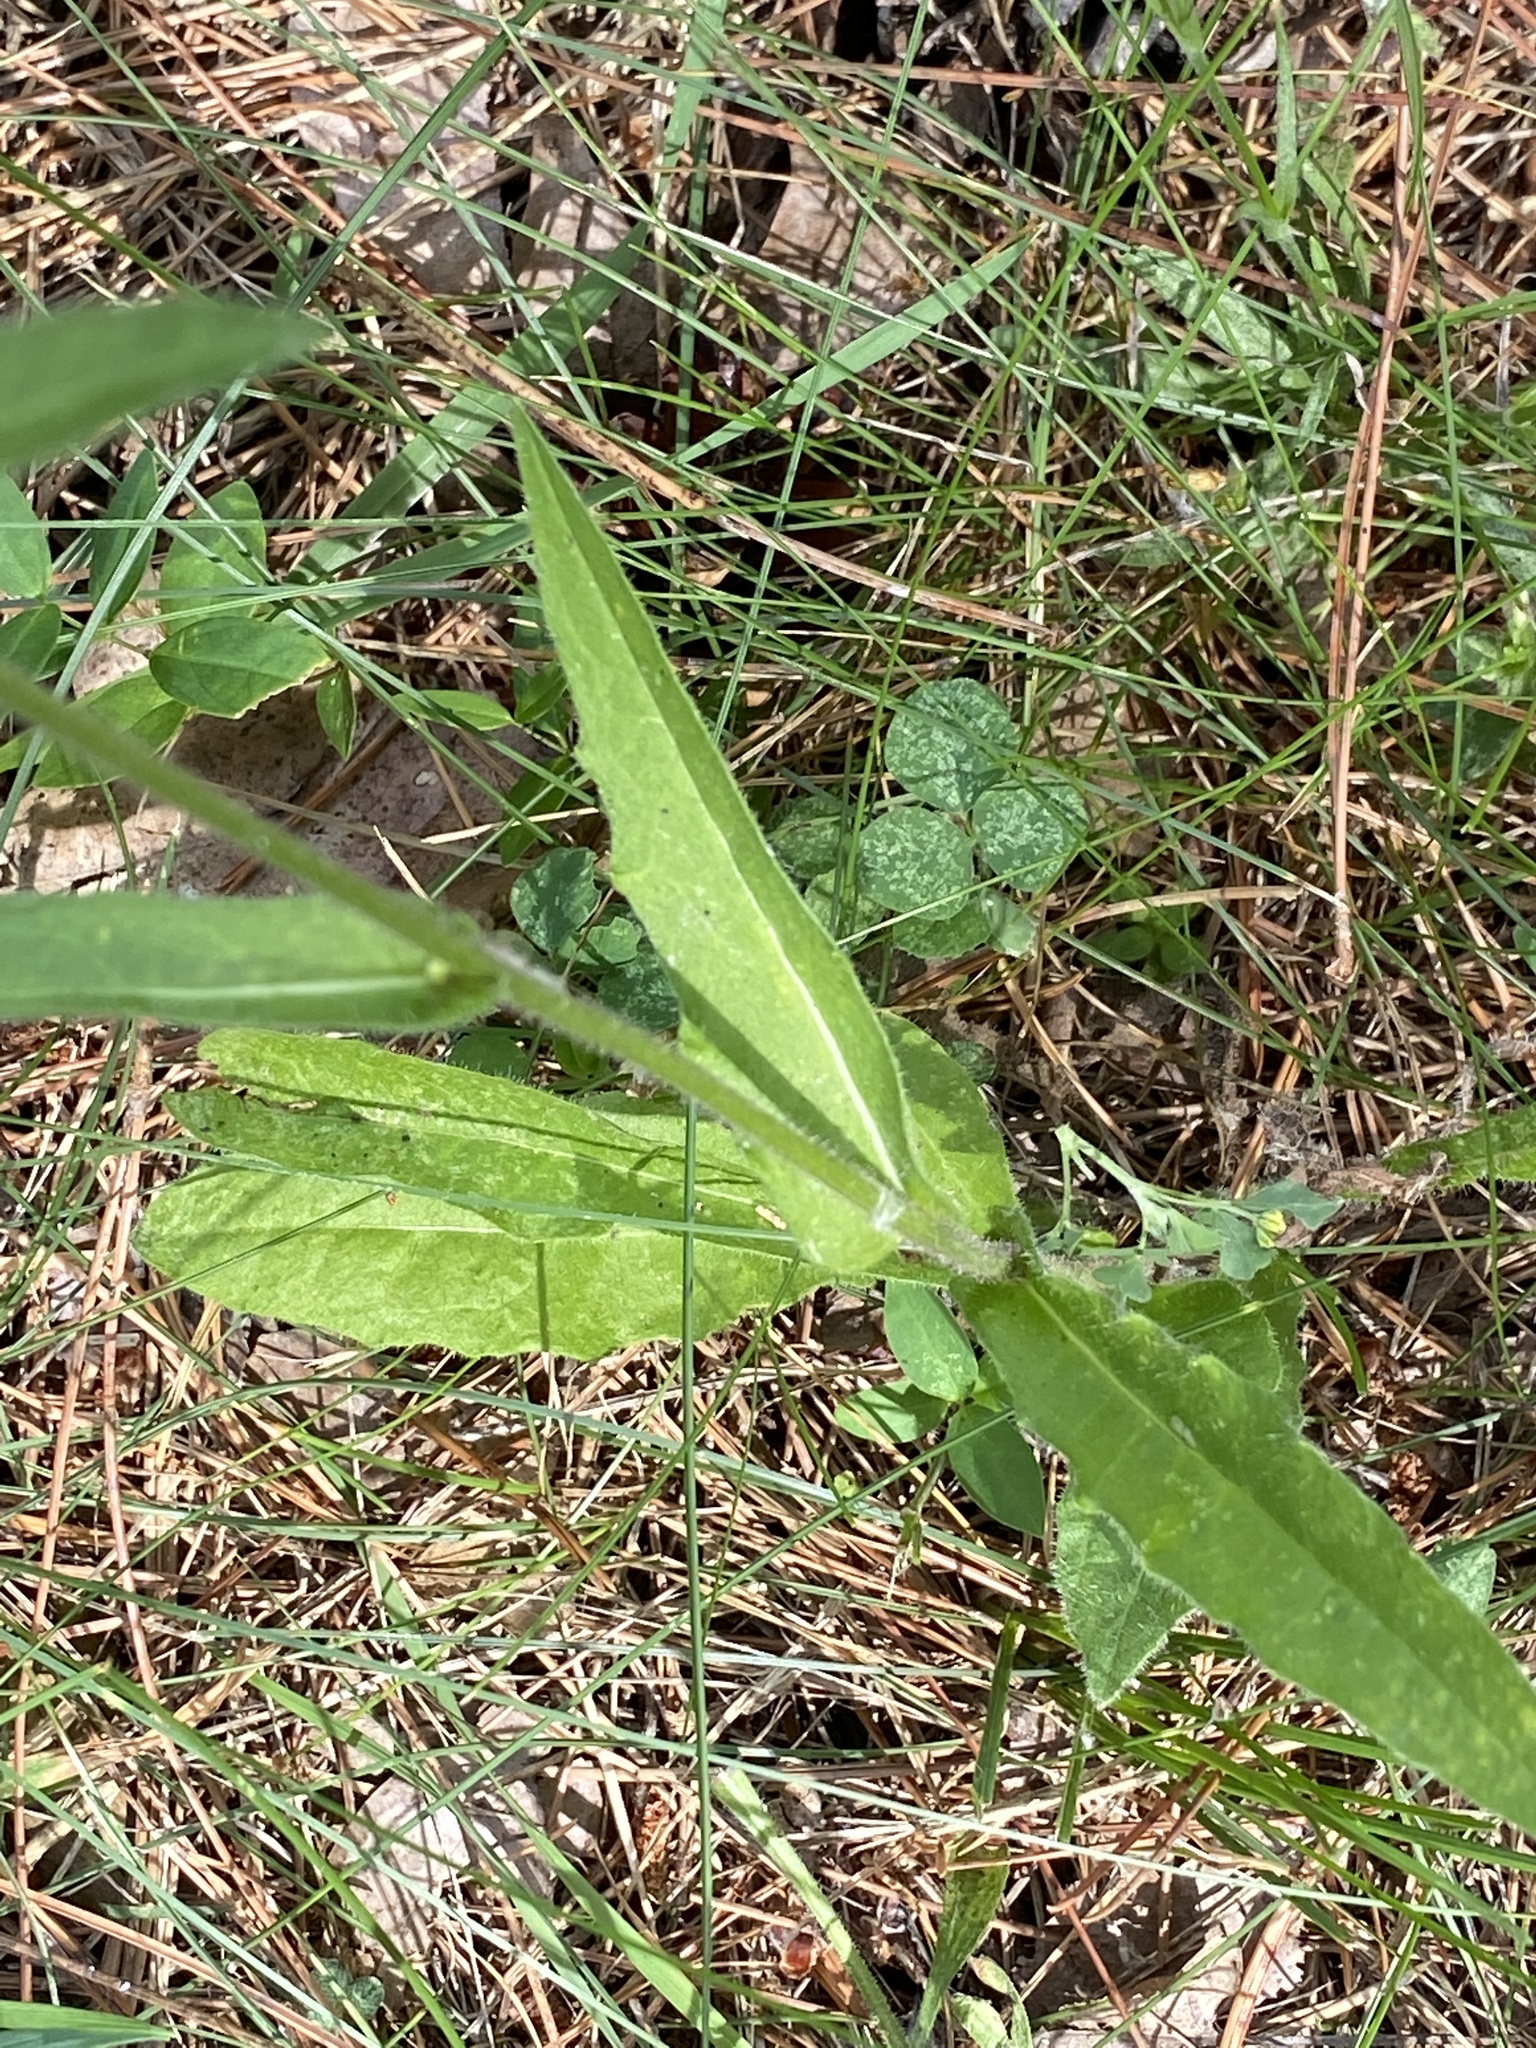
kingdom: Plantae
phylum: Tracheophyta
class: Magnoliopsida
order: Asterales
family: Asteraceae
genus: Picris
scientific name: Picris hieracioides
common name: Hawkweed oxtongue
